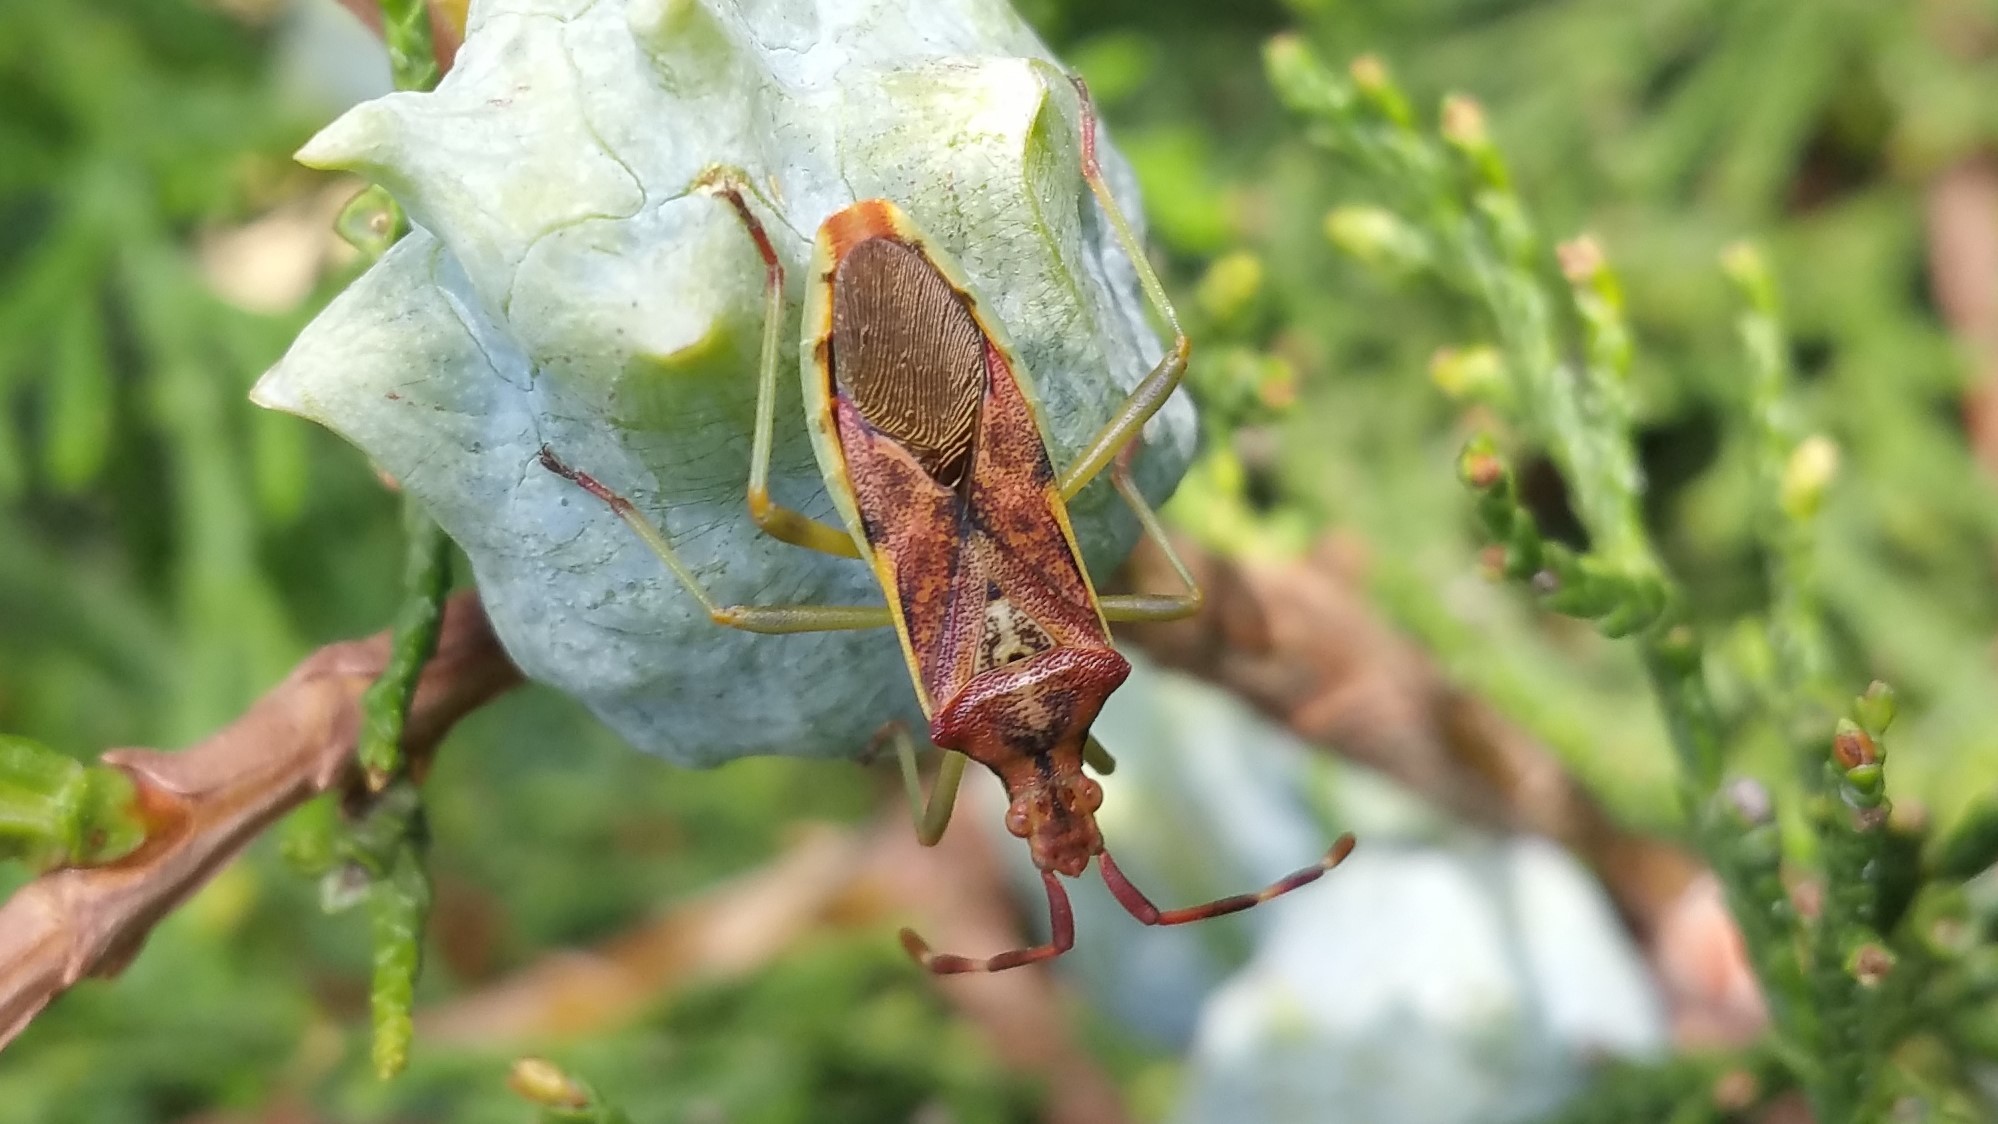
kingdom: Animalia
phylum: Arthropoda
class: Insecta
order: Hemiptera
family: Coreidae
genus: Gonocerus
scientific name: Gonocerus juniperi
